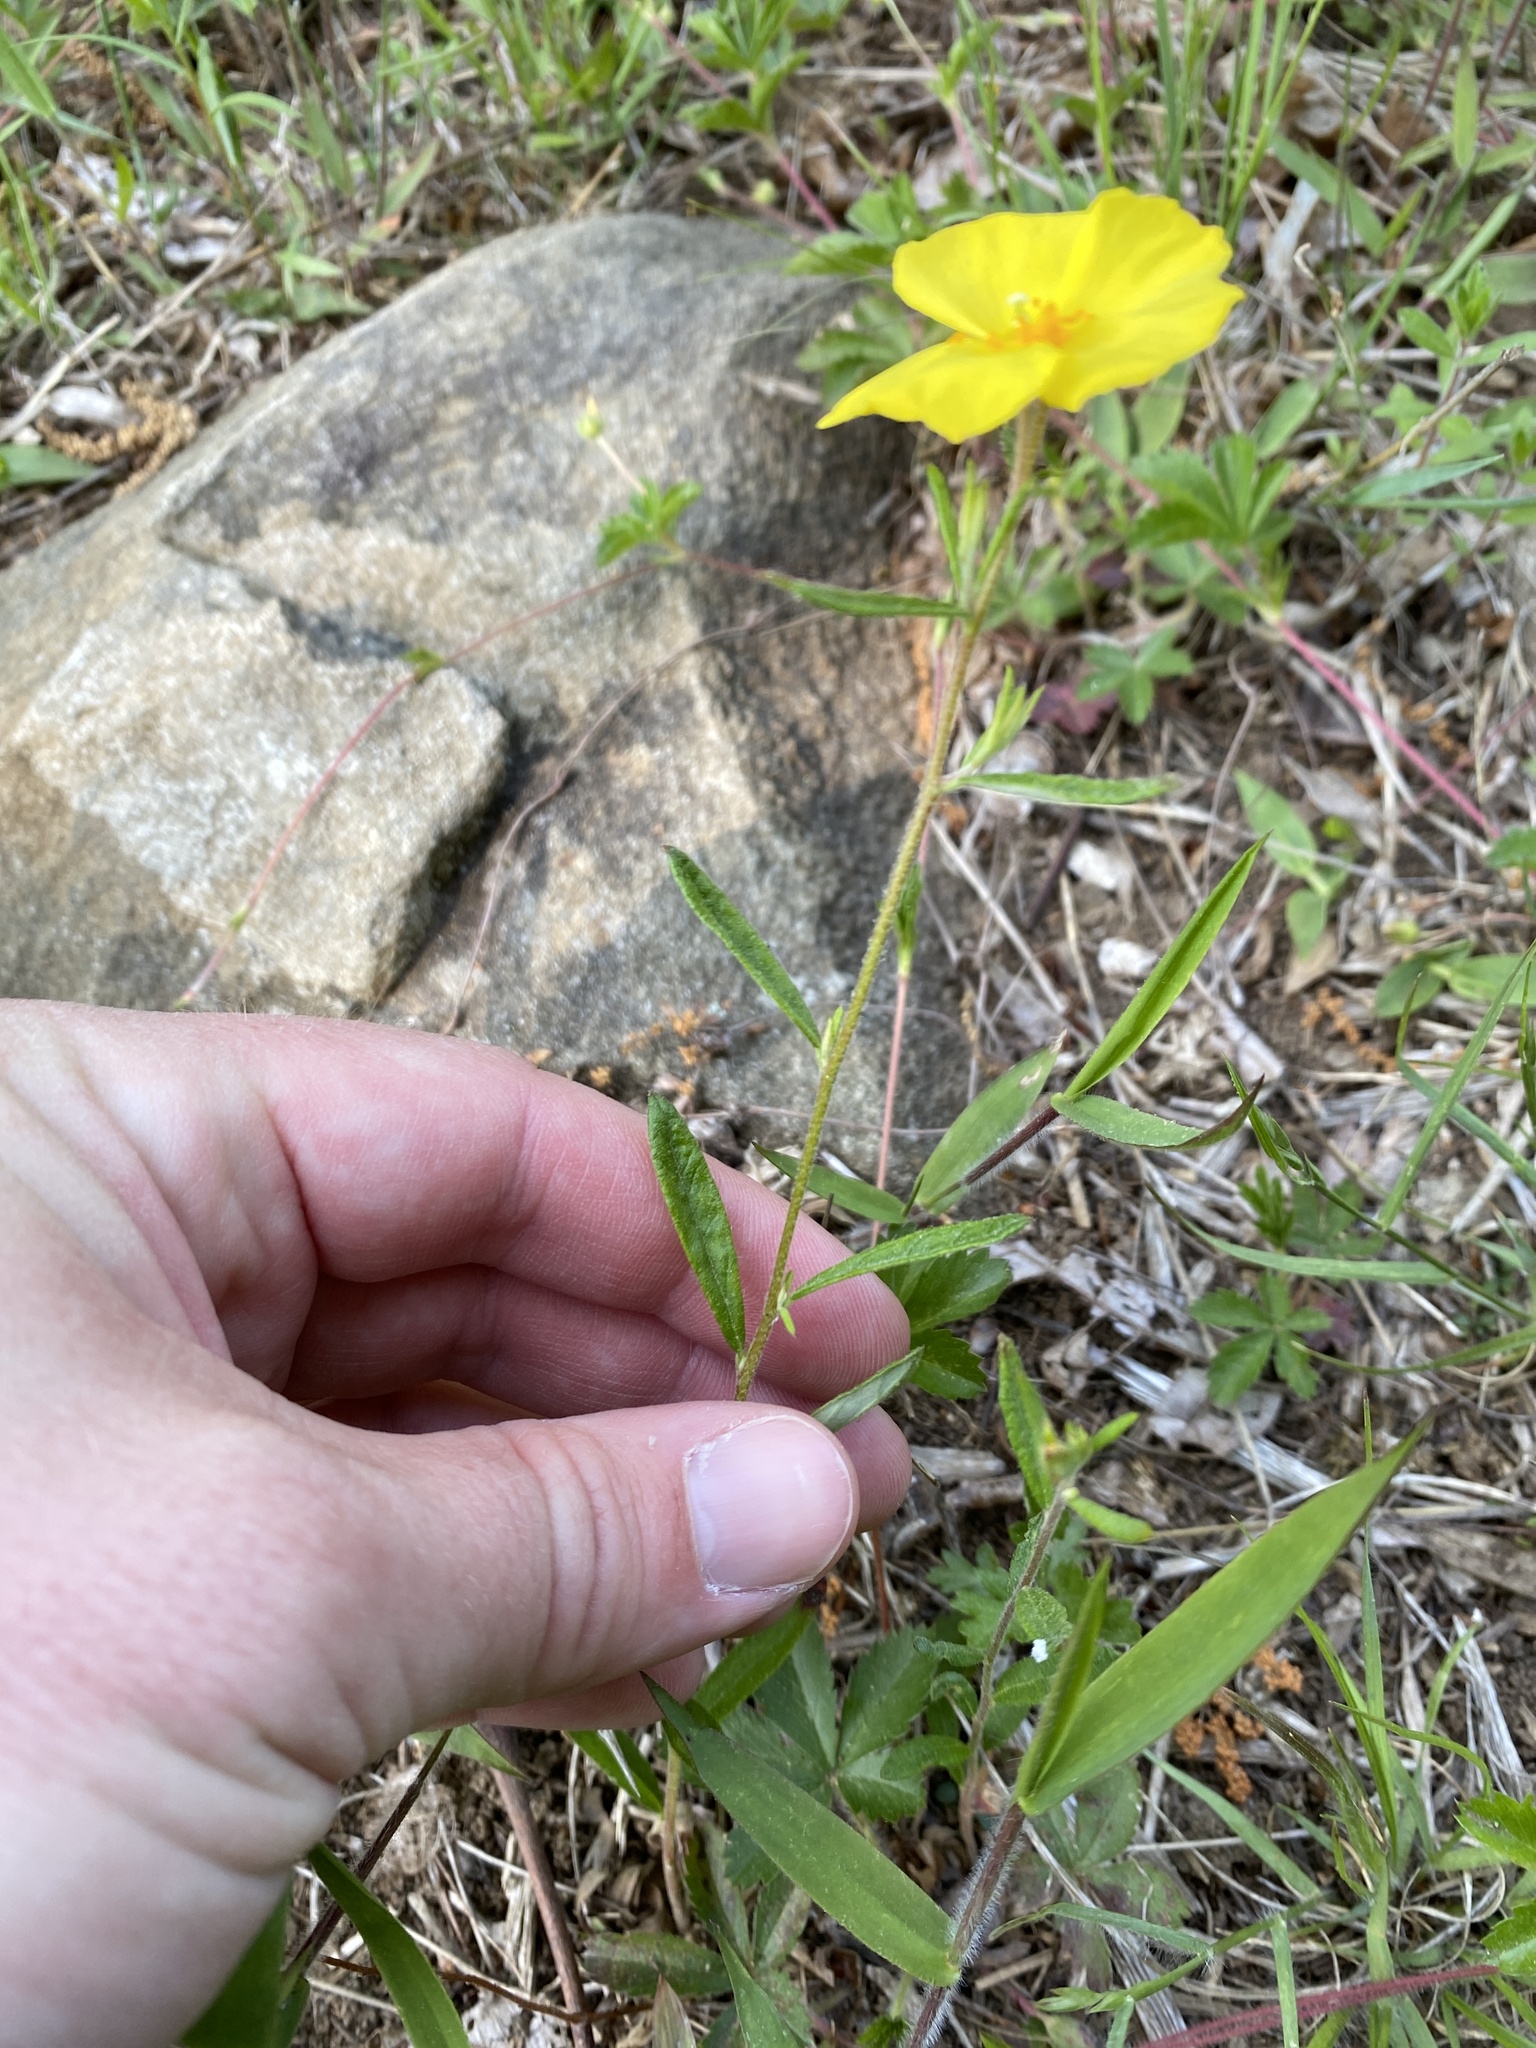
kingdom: Plantae
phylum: Tracheophyta
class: Magnoliopsida
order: Malvales
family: Cistaceae
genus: Crocanthemum
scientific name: Crocanthemum canadense
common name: Canada frostweed
